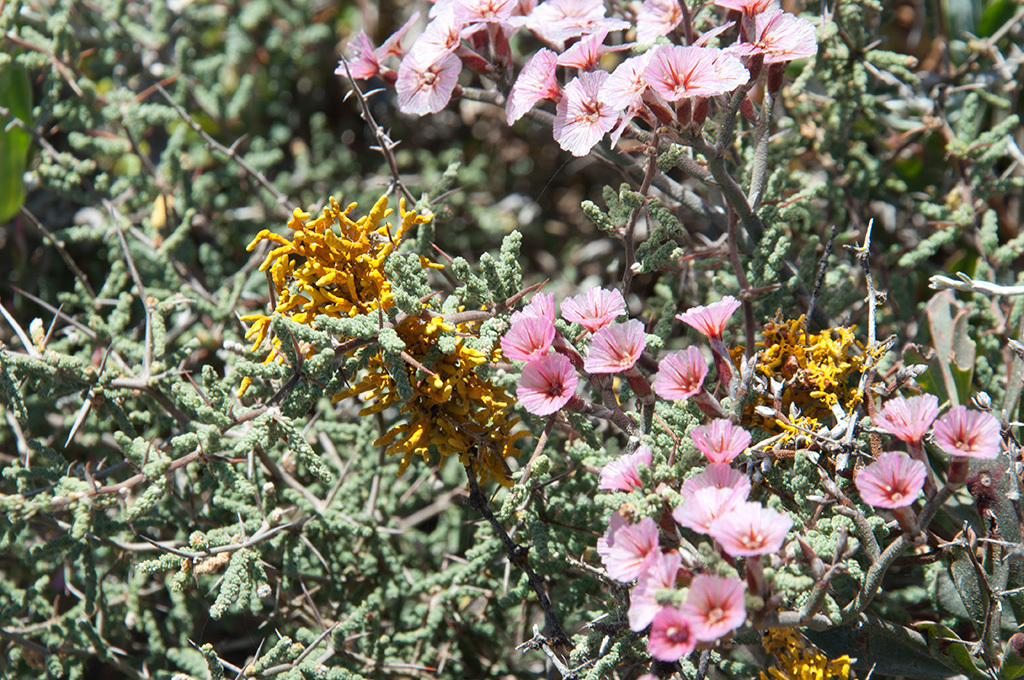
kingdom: Plantae
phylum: Tracheophyta
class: Liliopsida
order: Asparagales
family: Asparagaceae
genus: Asparagus
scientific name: Asparagus capensis
